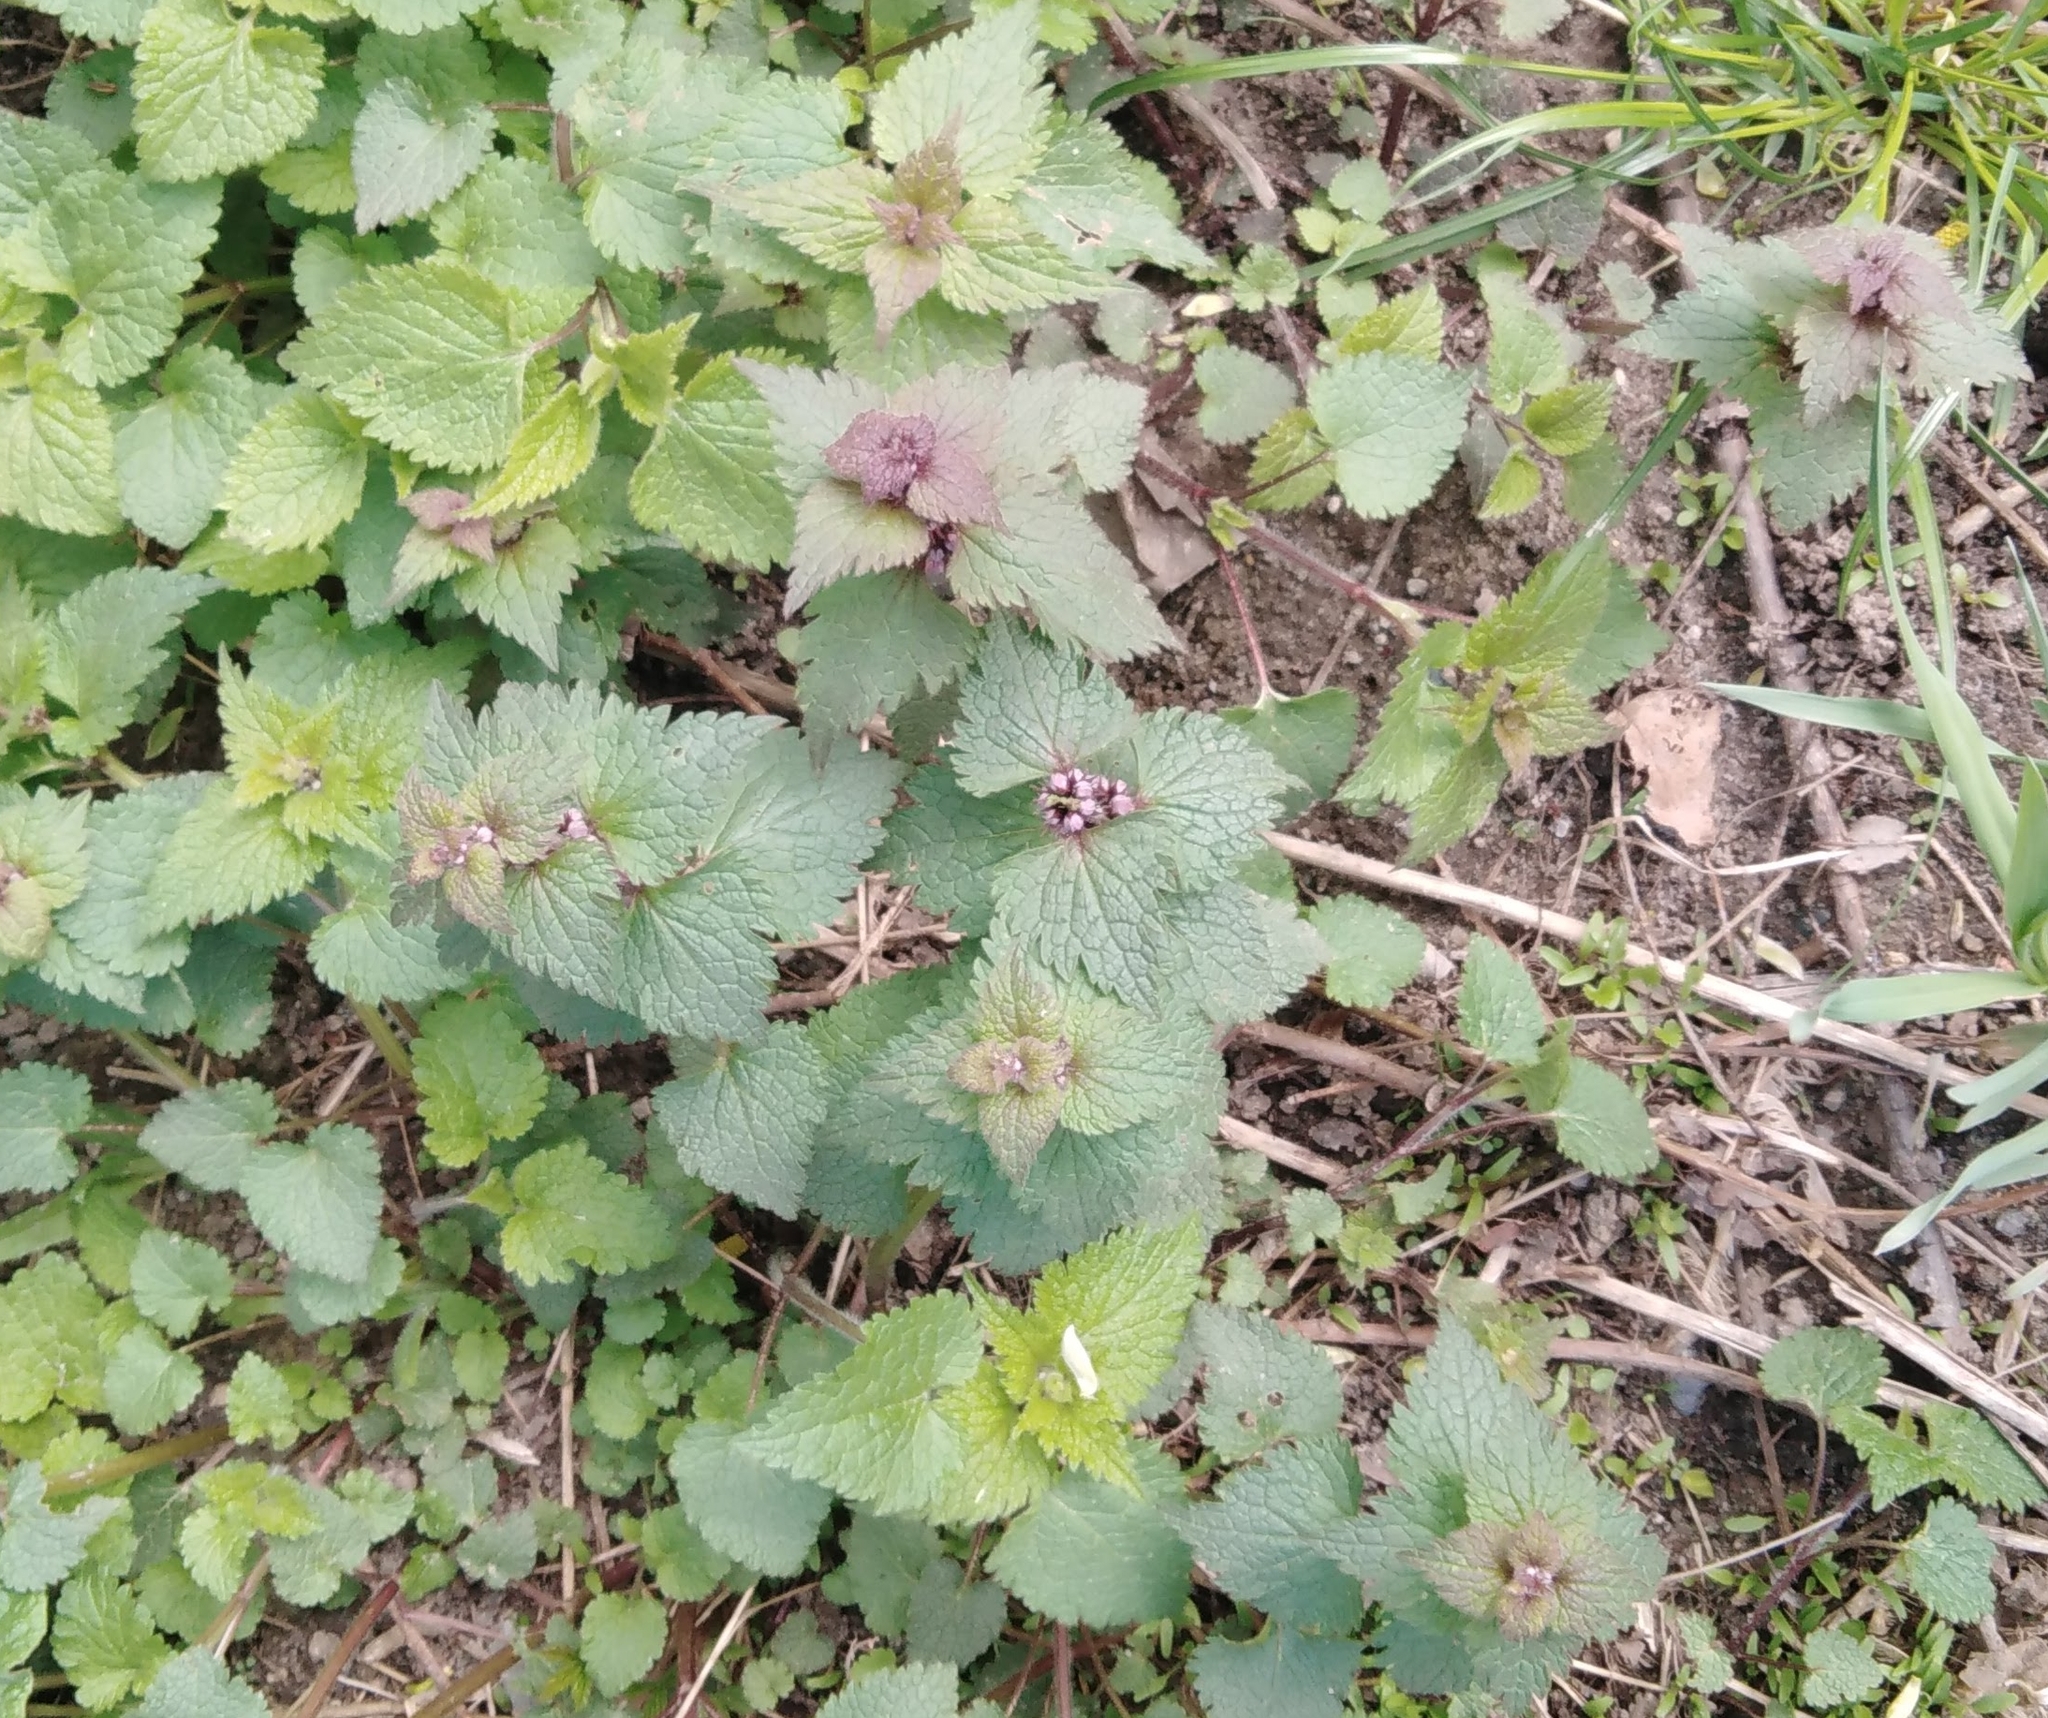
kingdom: Plantae
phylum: Tracheophyta
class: Magnoliopsida
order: Lamiales
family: Lamiaceae
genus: Lamium
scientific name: Lamium maculatum
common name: Spotted dead-nettle
